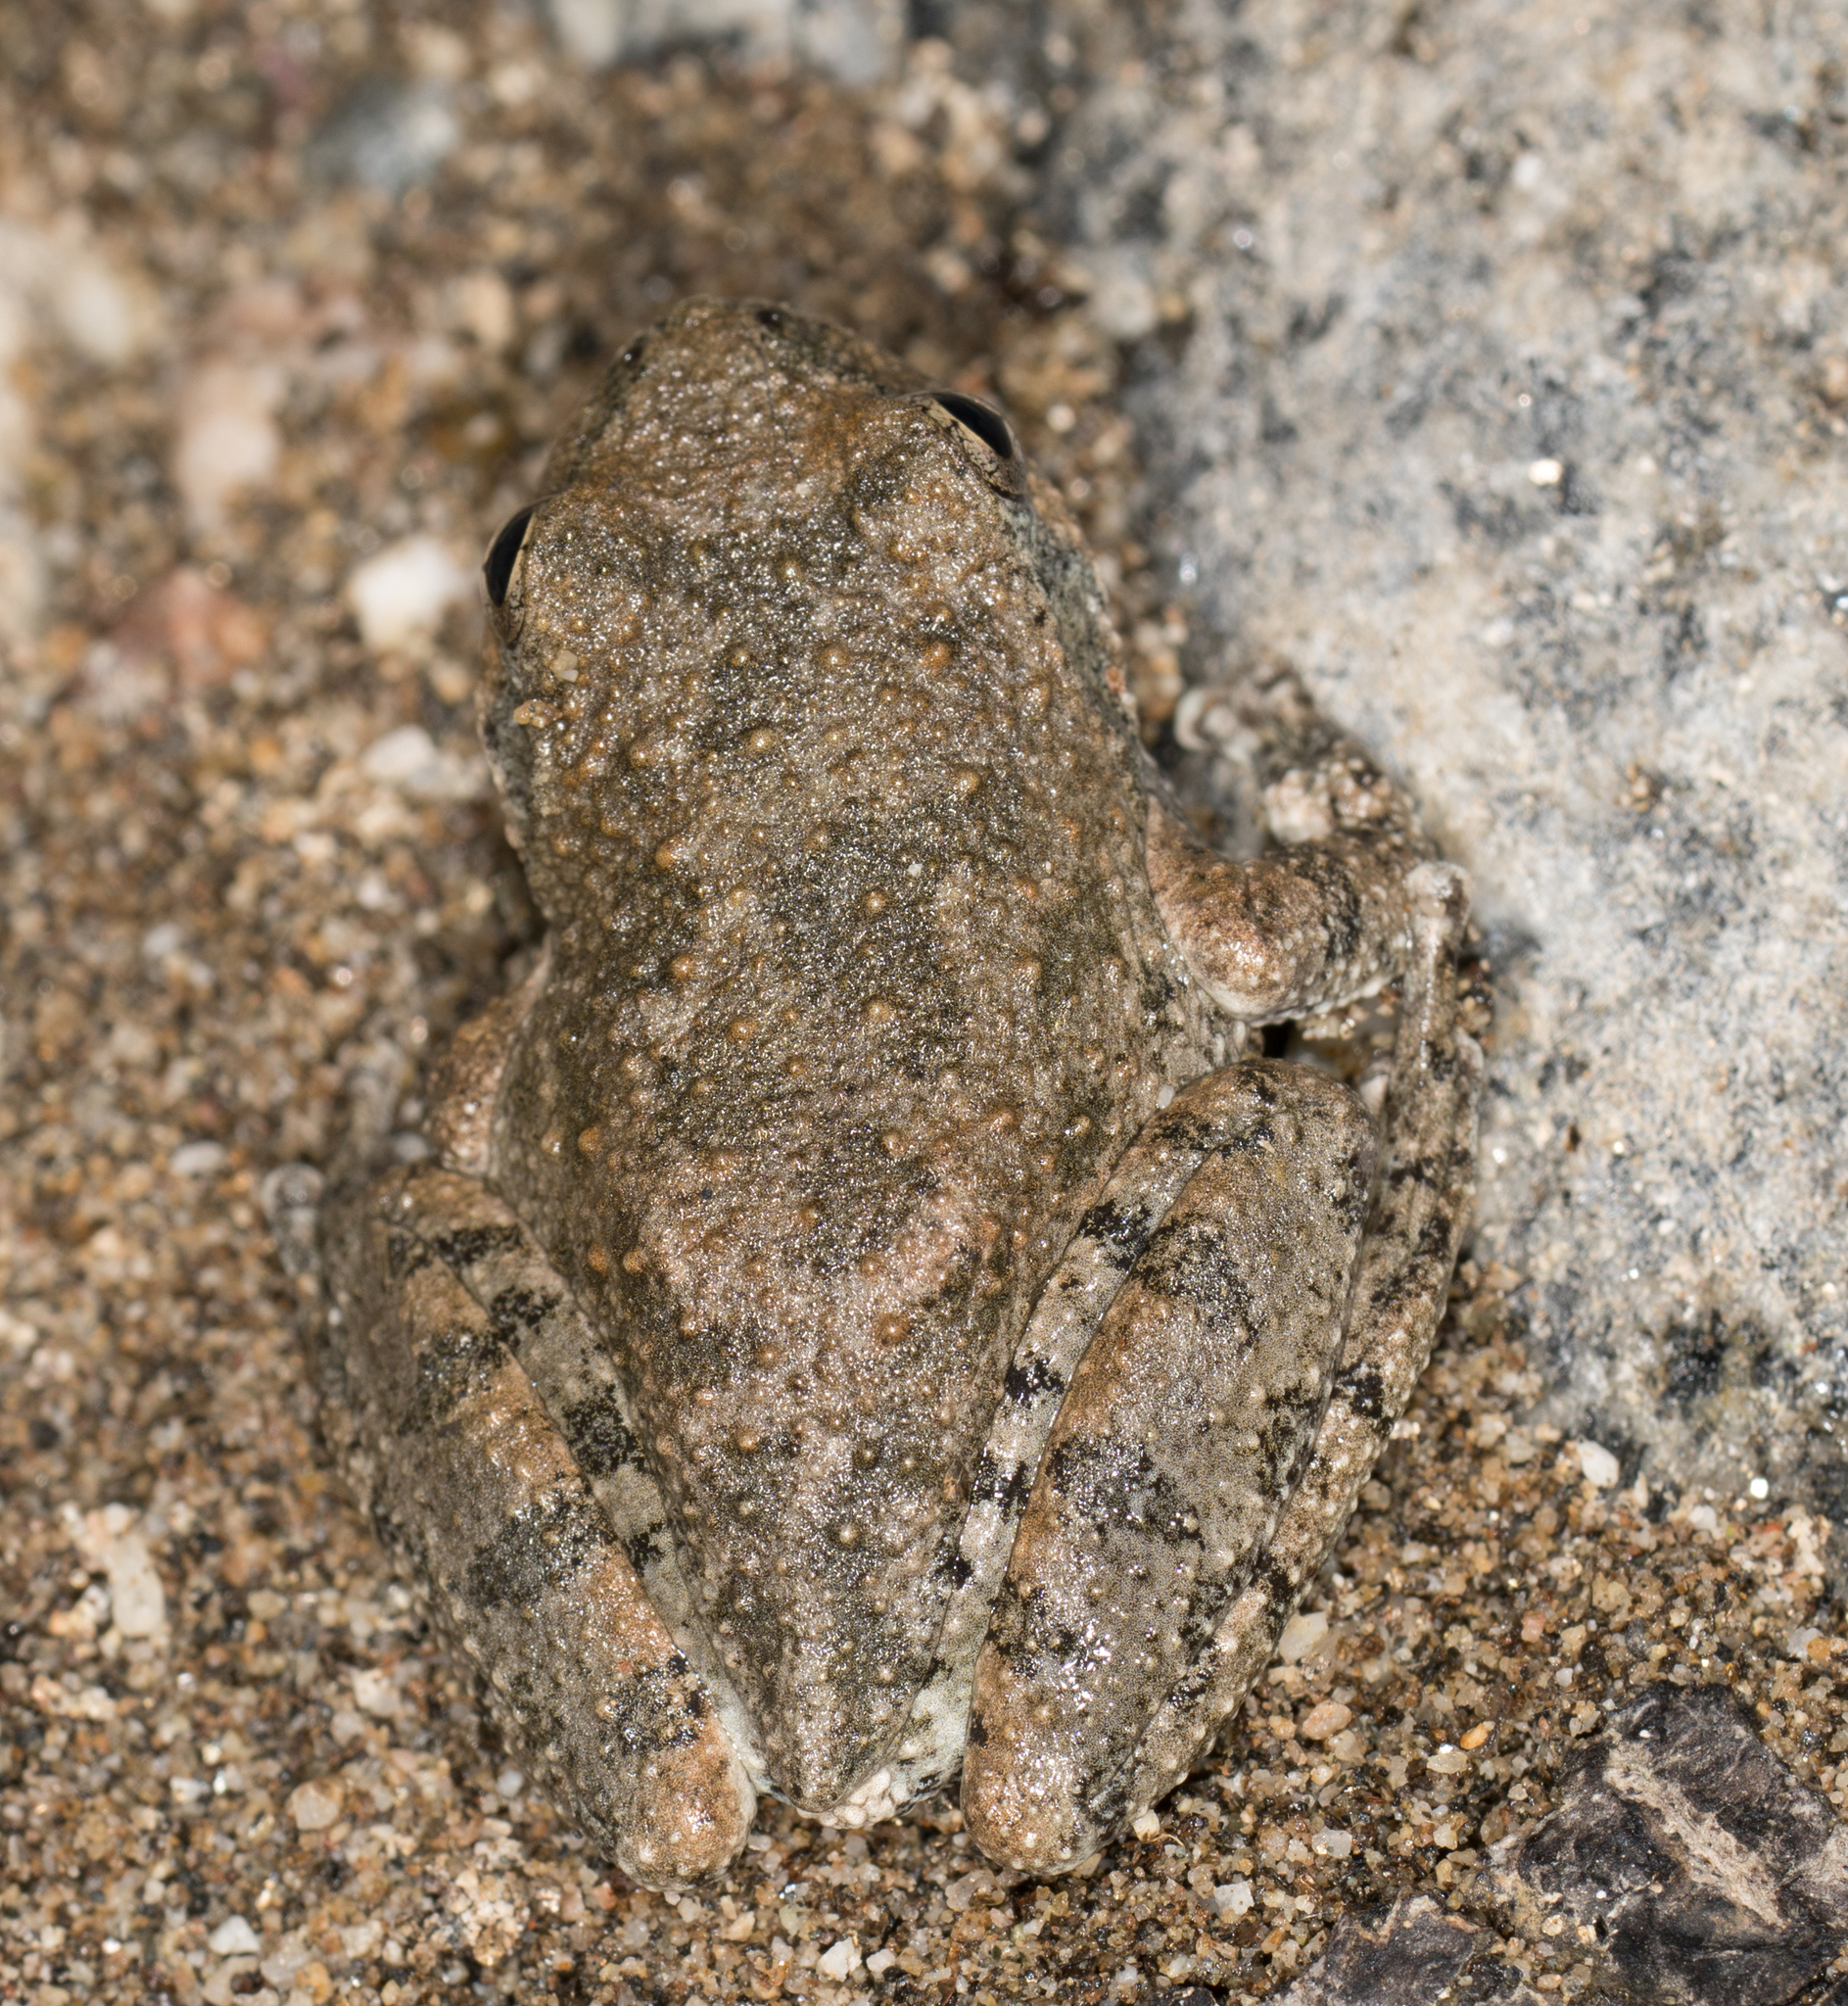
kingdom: Animalia
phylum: Chordata
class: Amphibia
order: Anura
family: Hylidae
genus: Pseudacris
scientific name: Pseudacris cadaverina
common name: California chorus frog
